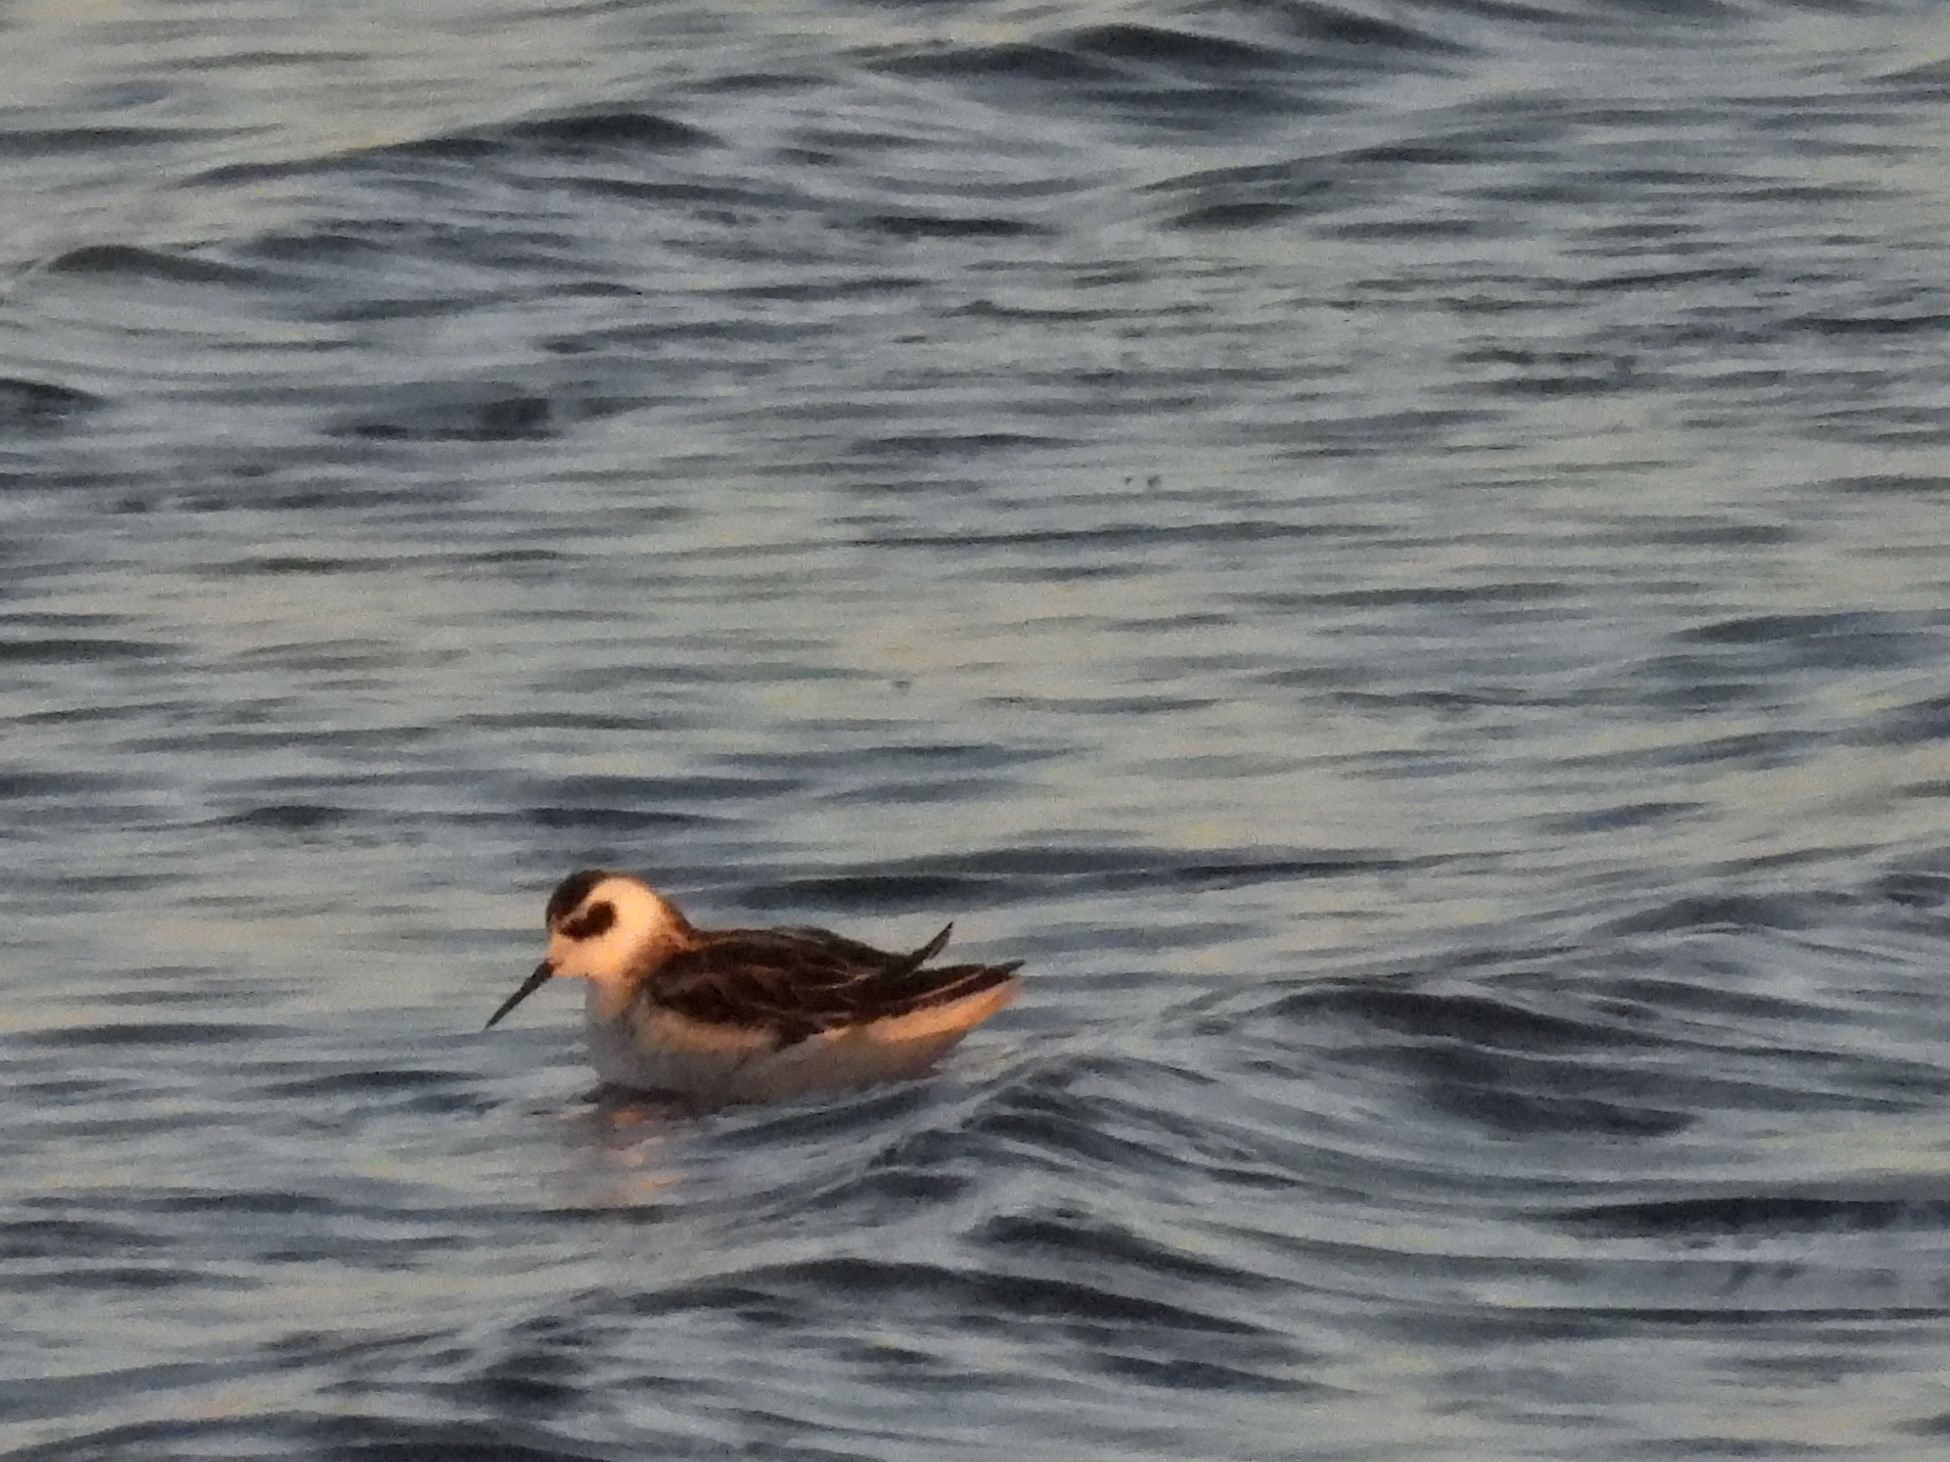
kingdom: Animalia
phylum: Chordata
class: Aves
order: Charadriiformes
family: Scolopacidae
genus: Phalaropus
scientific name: Phalaropus lobatus
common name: Red-necked phalarope
